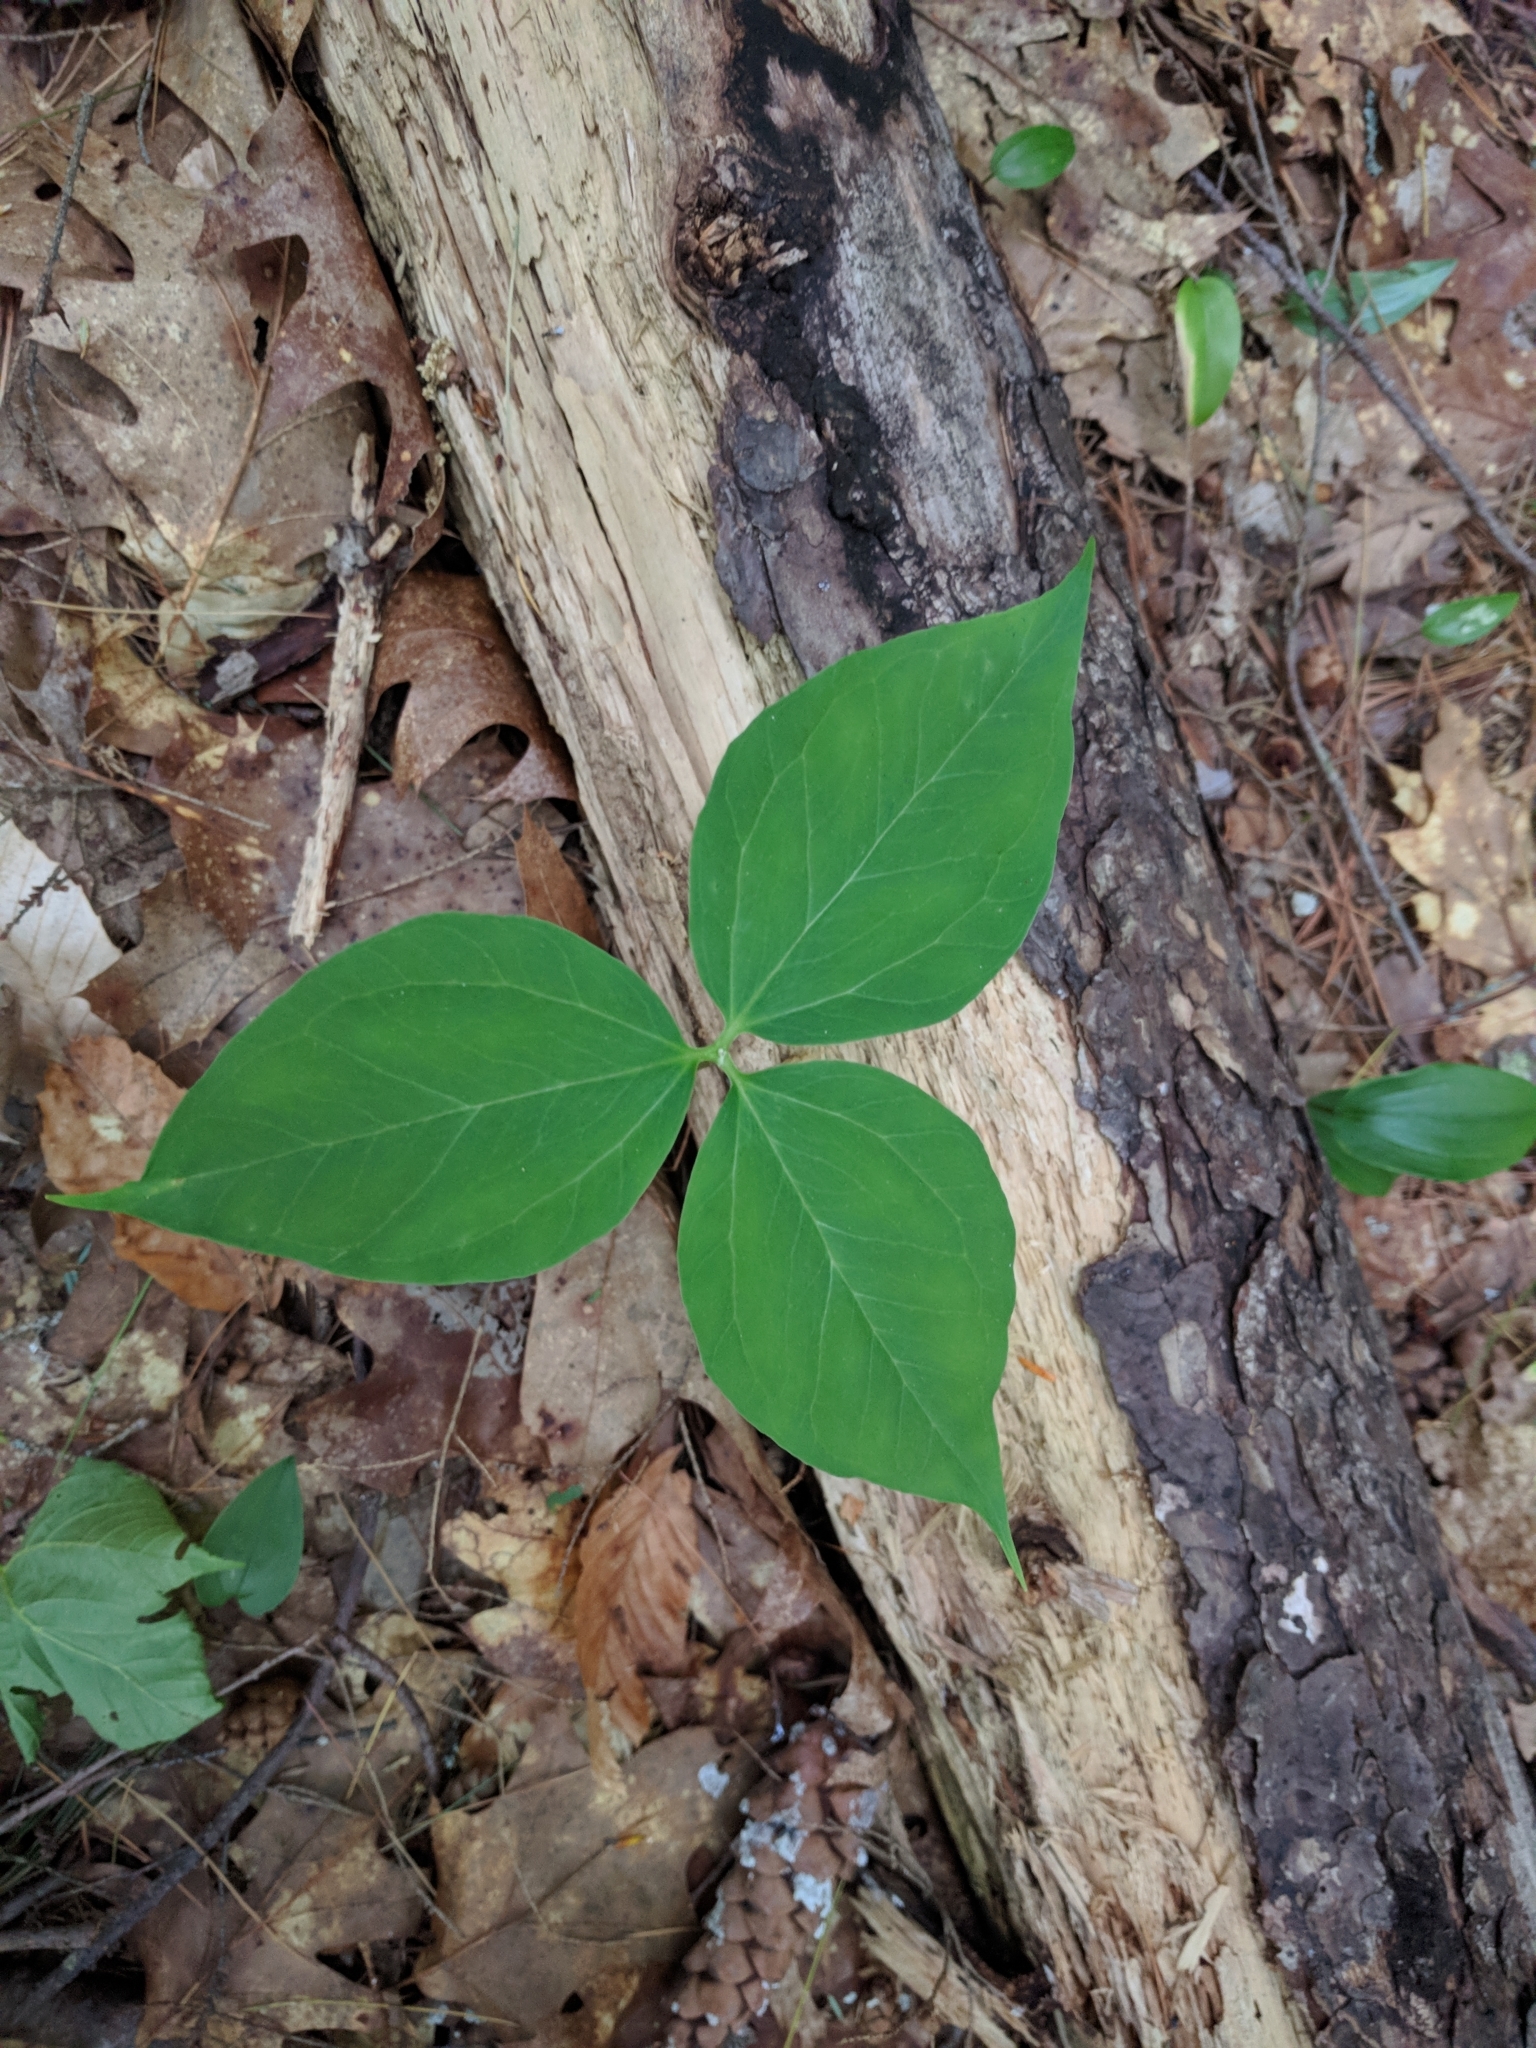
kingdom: Plantae
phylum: Tracheophyta
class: Liliopsida
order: Liliales
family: Melanthiaceae
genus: Trillium
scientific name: Trillium undulatum
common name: Paint trillium
